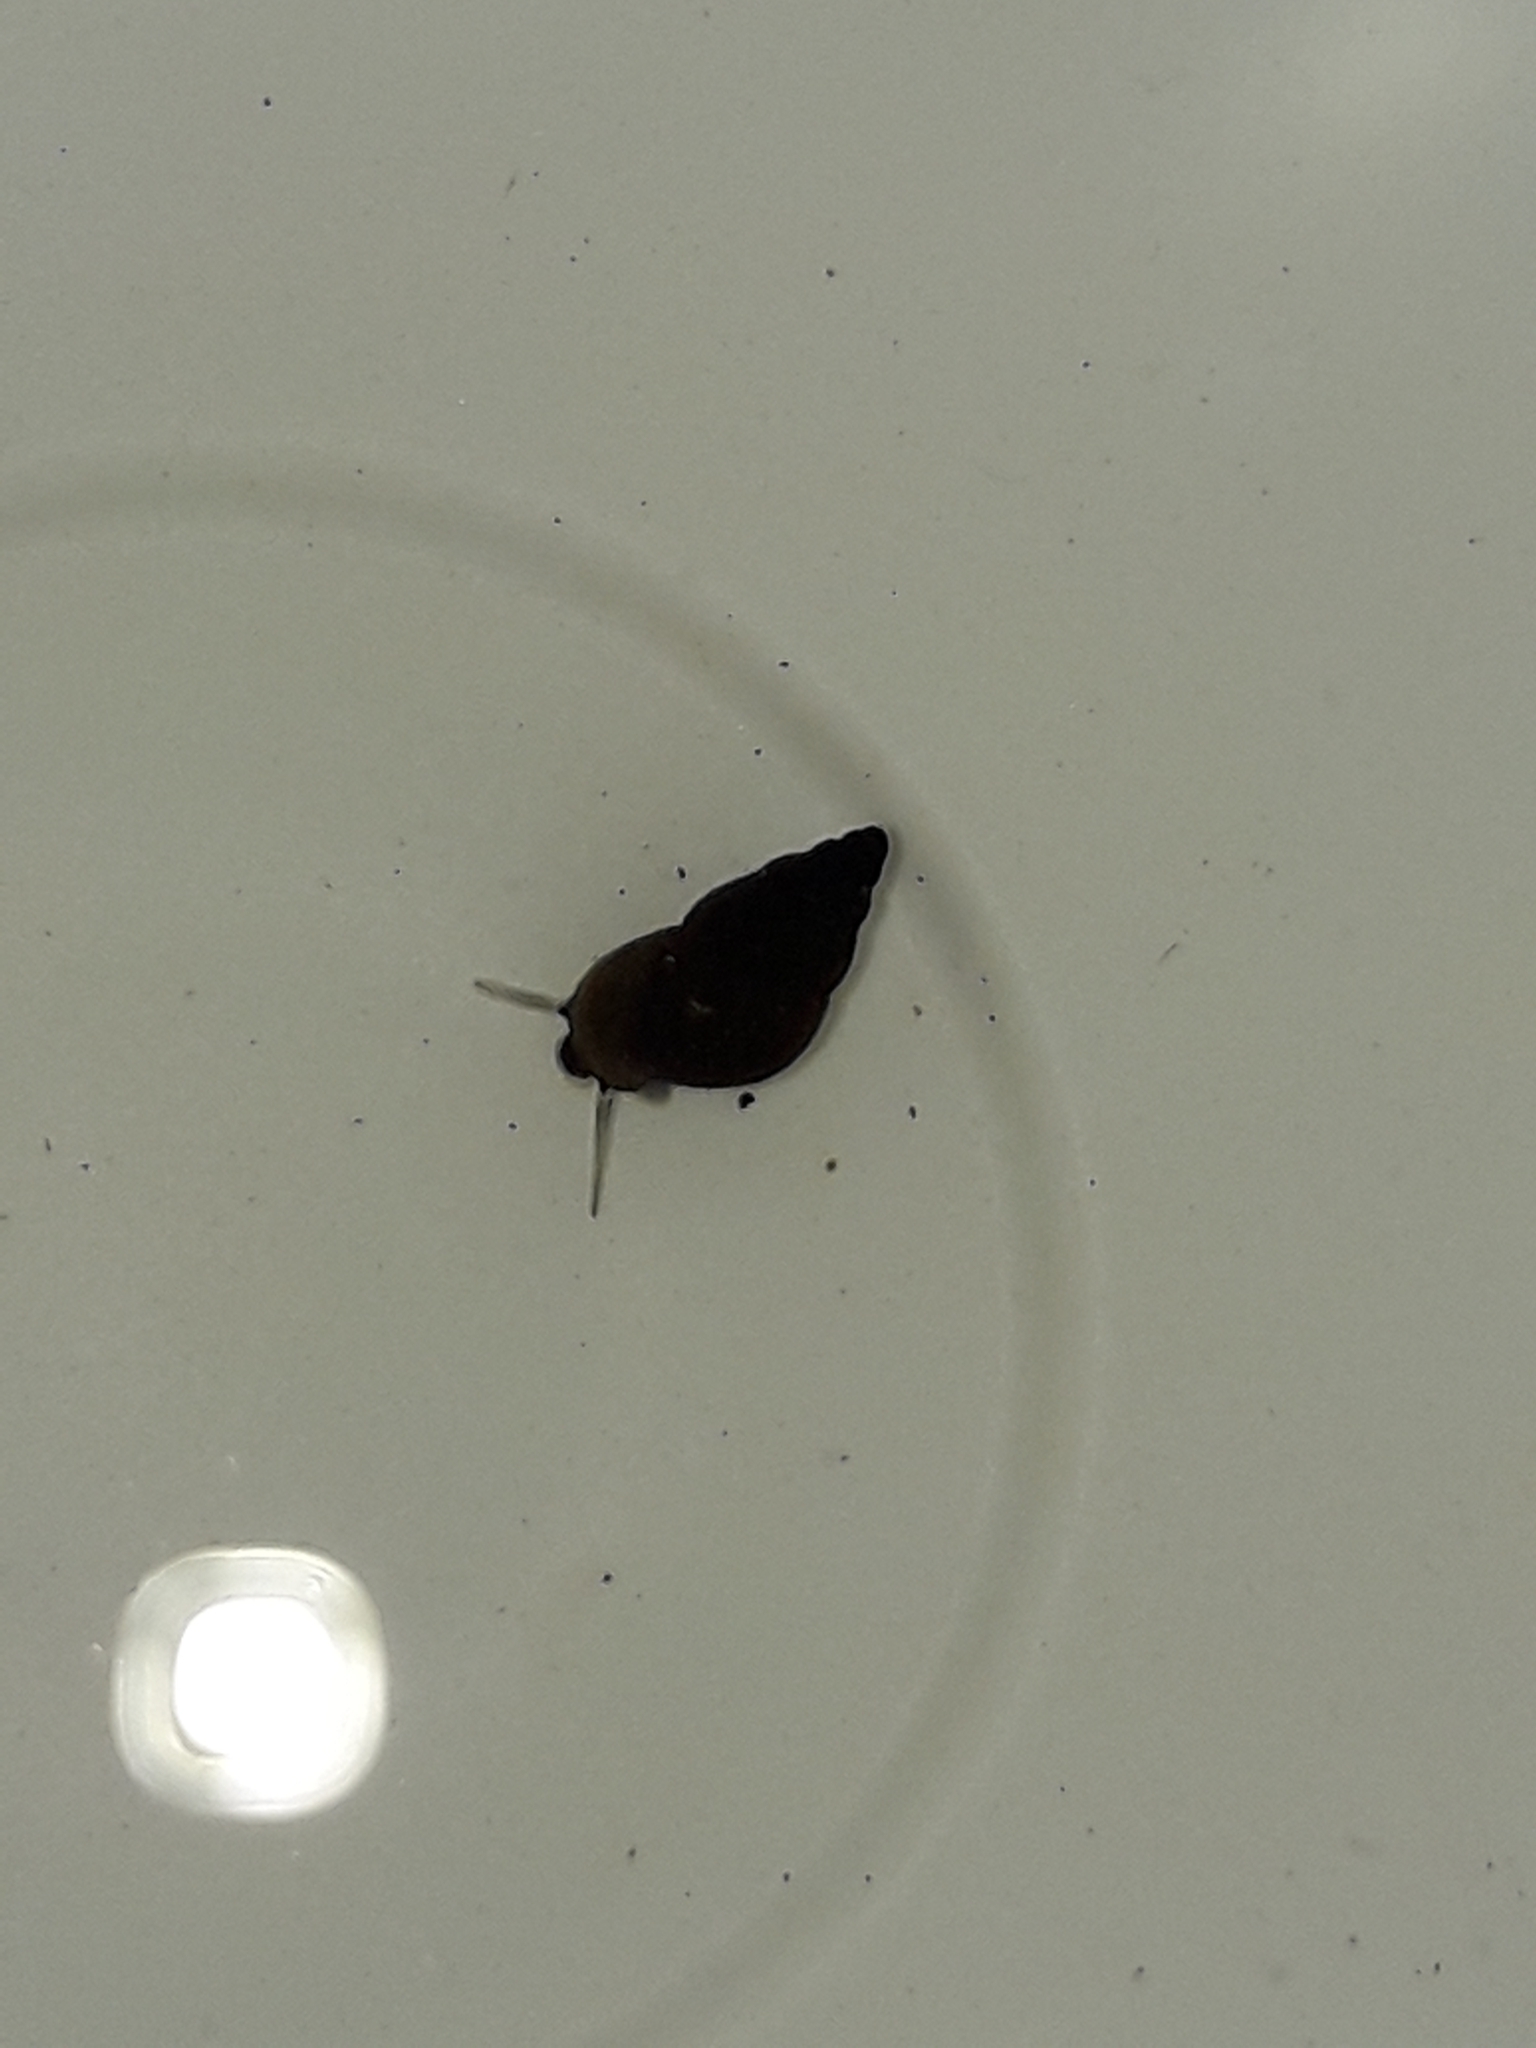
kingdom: Animalia
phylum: Mollusca
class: Gastropoda
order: Littorinimorpha
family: Tateidae
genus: Potamopyrgus
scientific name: Potamopyrgus antipodarum
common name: Jenkins' spire snail
